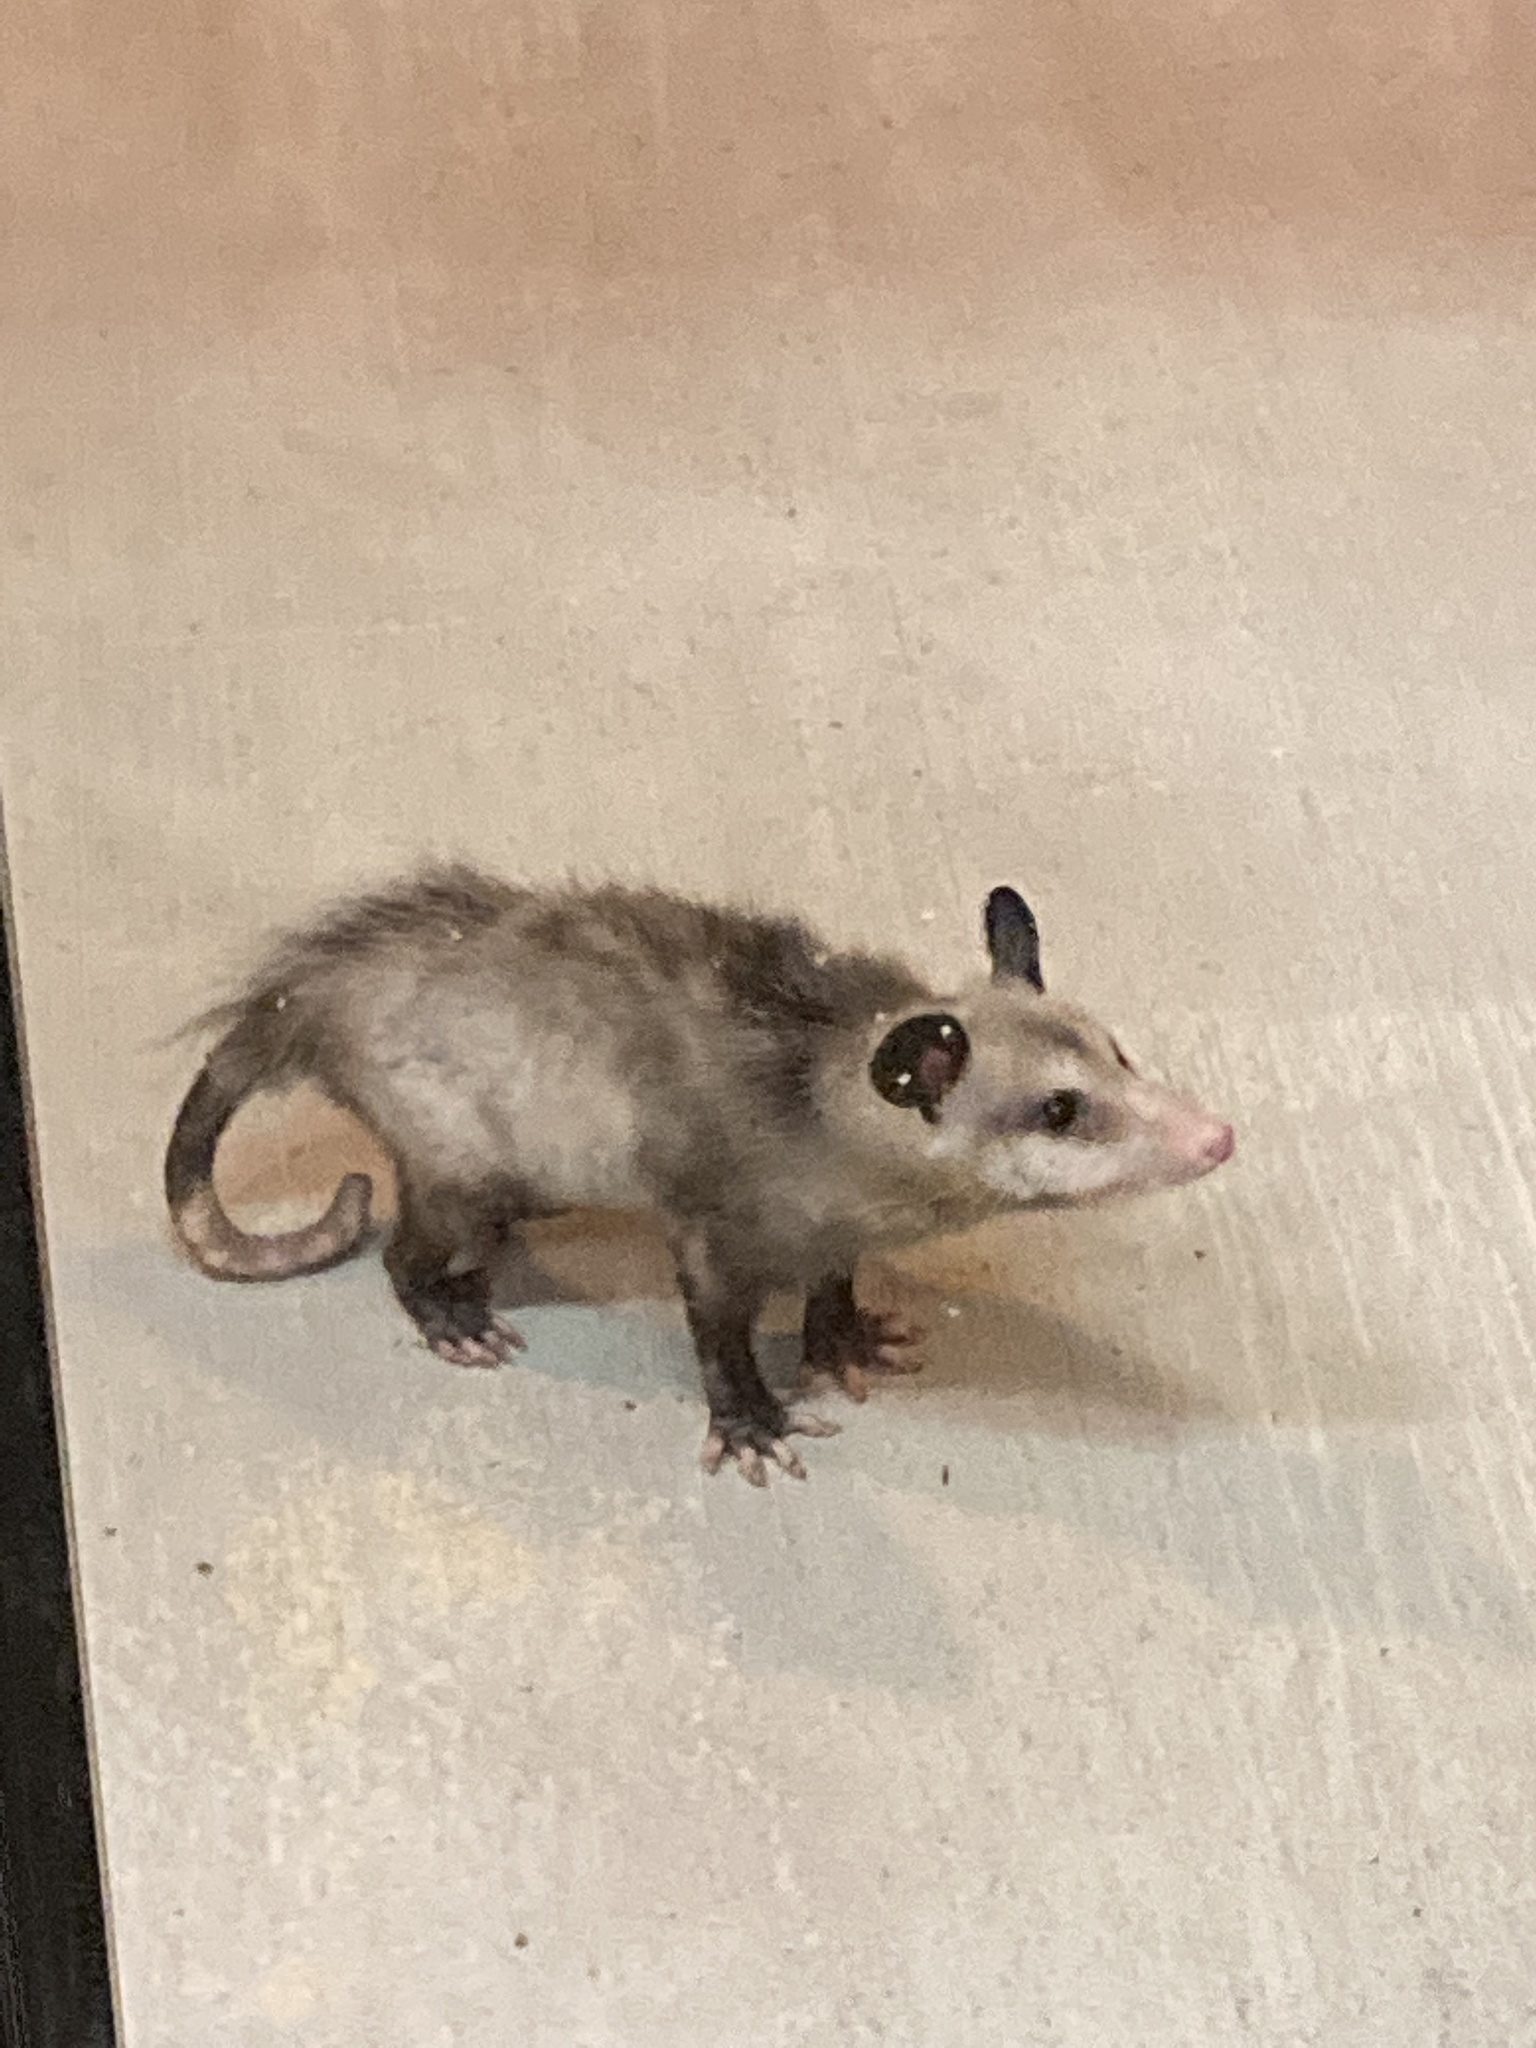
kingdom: Animalia
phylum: Chordata
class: Mammalia
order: Didelphimorphia
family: Didelphidae
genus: Didelphis
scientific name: Didelphis virginiana
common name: Virginia opossum
